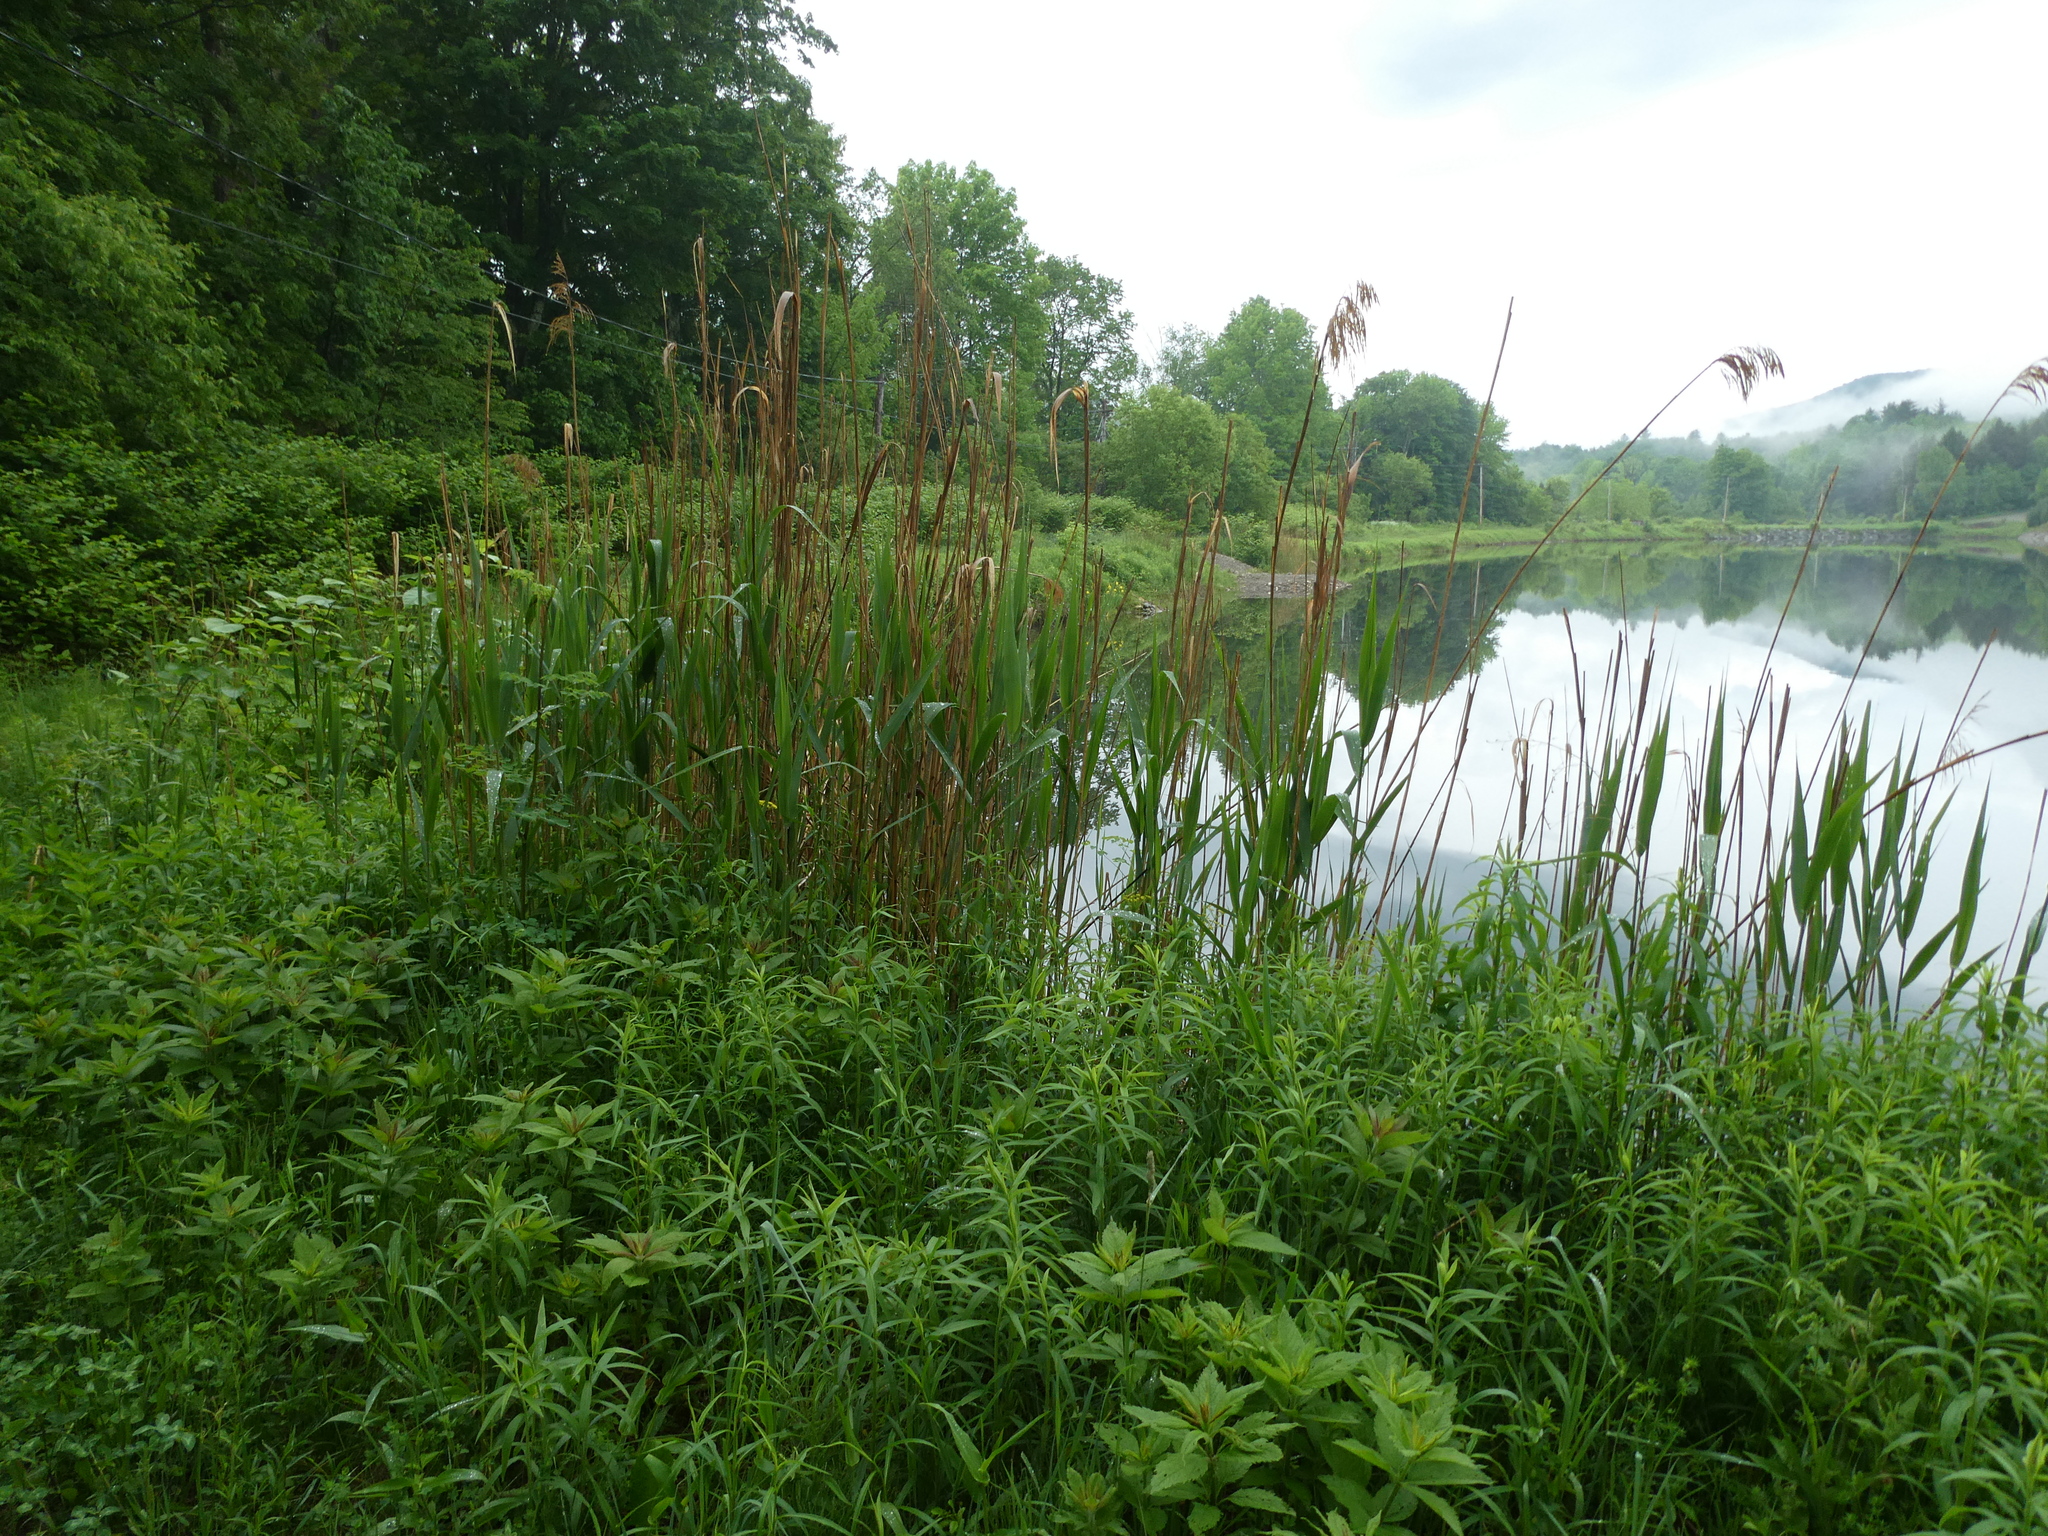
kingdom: Plantae
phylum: Tracheophyta
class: Liliopsida
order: Poales
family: Poaceae
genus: Phragmites
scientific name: Phragmites australis
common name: Common reed
